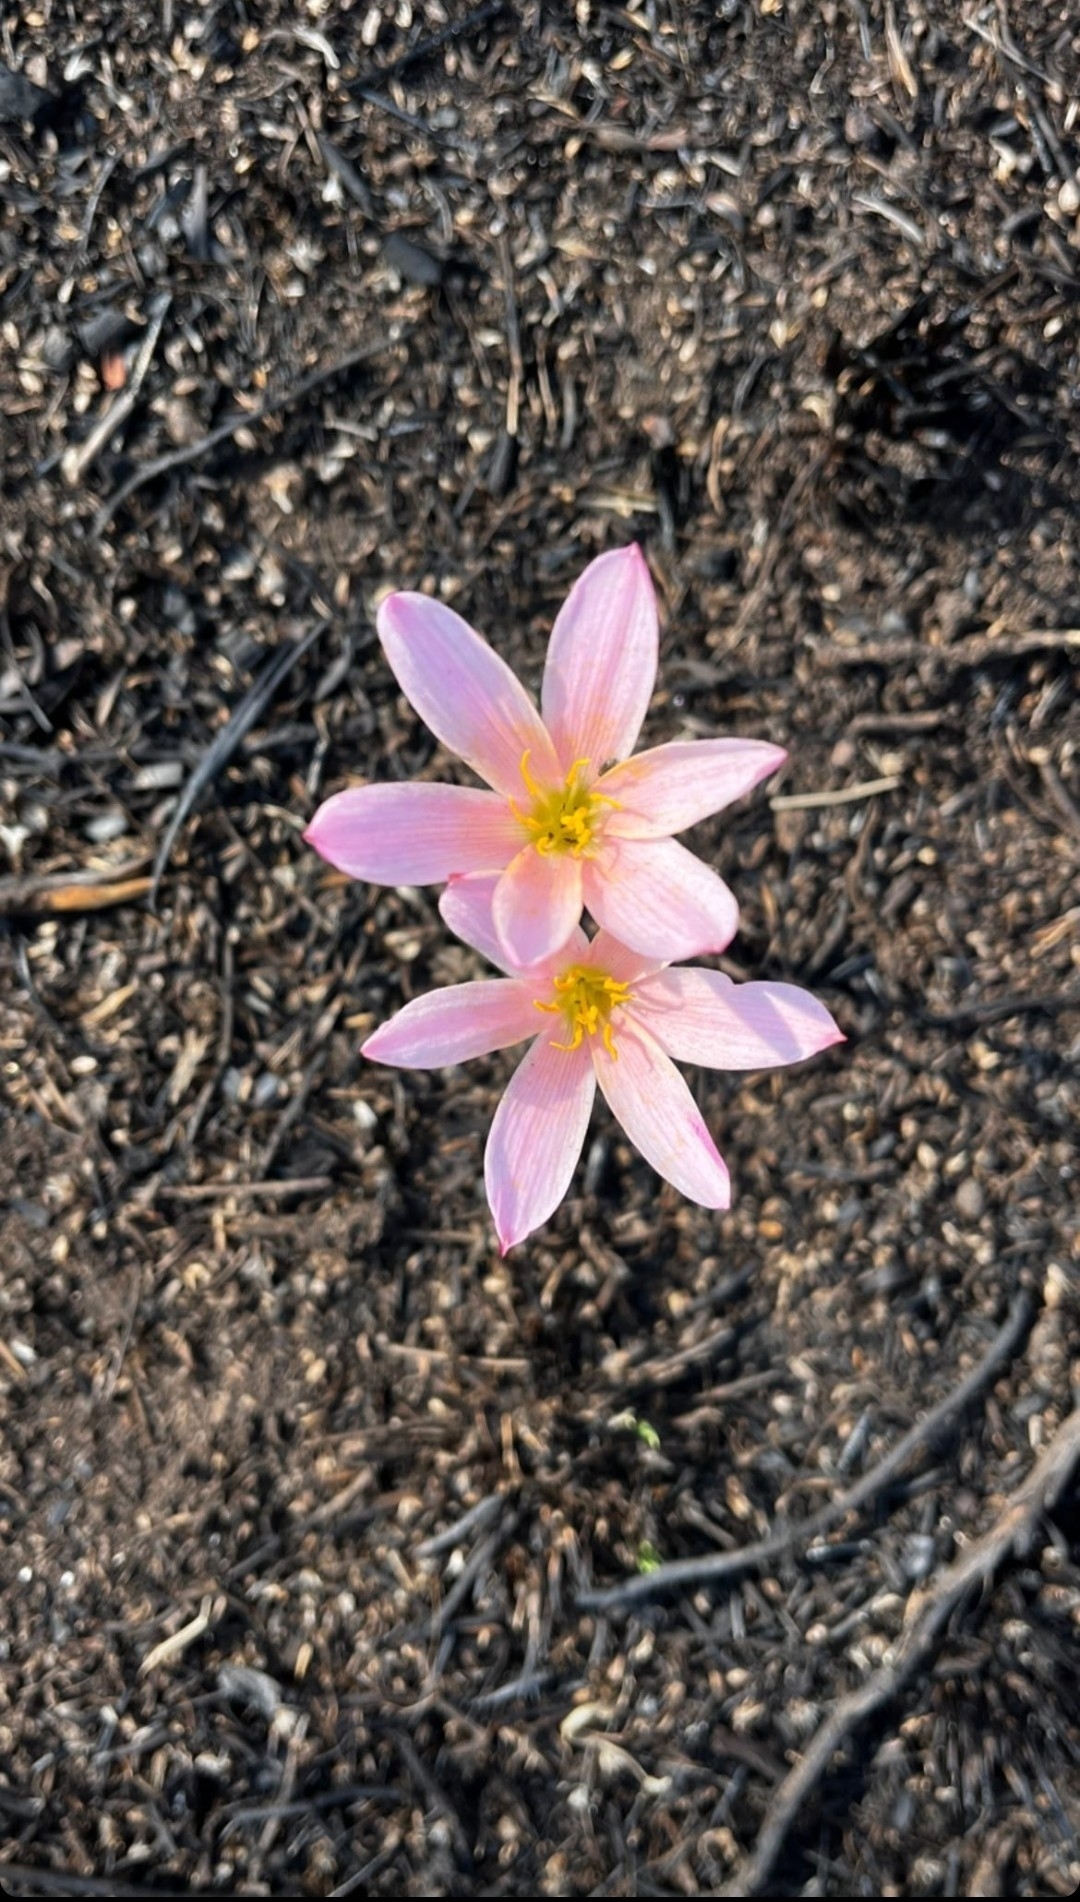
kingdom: Plantae
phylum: Tracheophyta
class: Liliopsida
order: Asparagales
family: Amaryllidaceae
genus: Zephyranthes
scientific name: Zephyranthes fosteri
